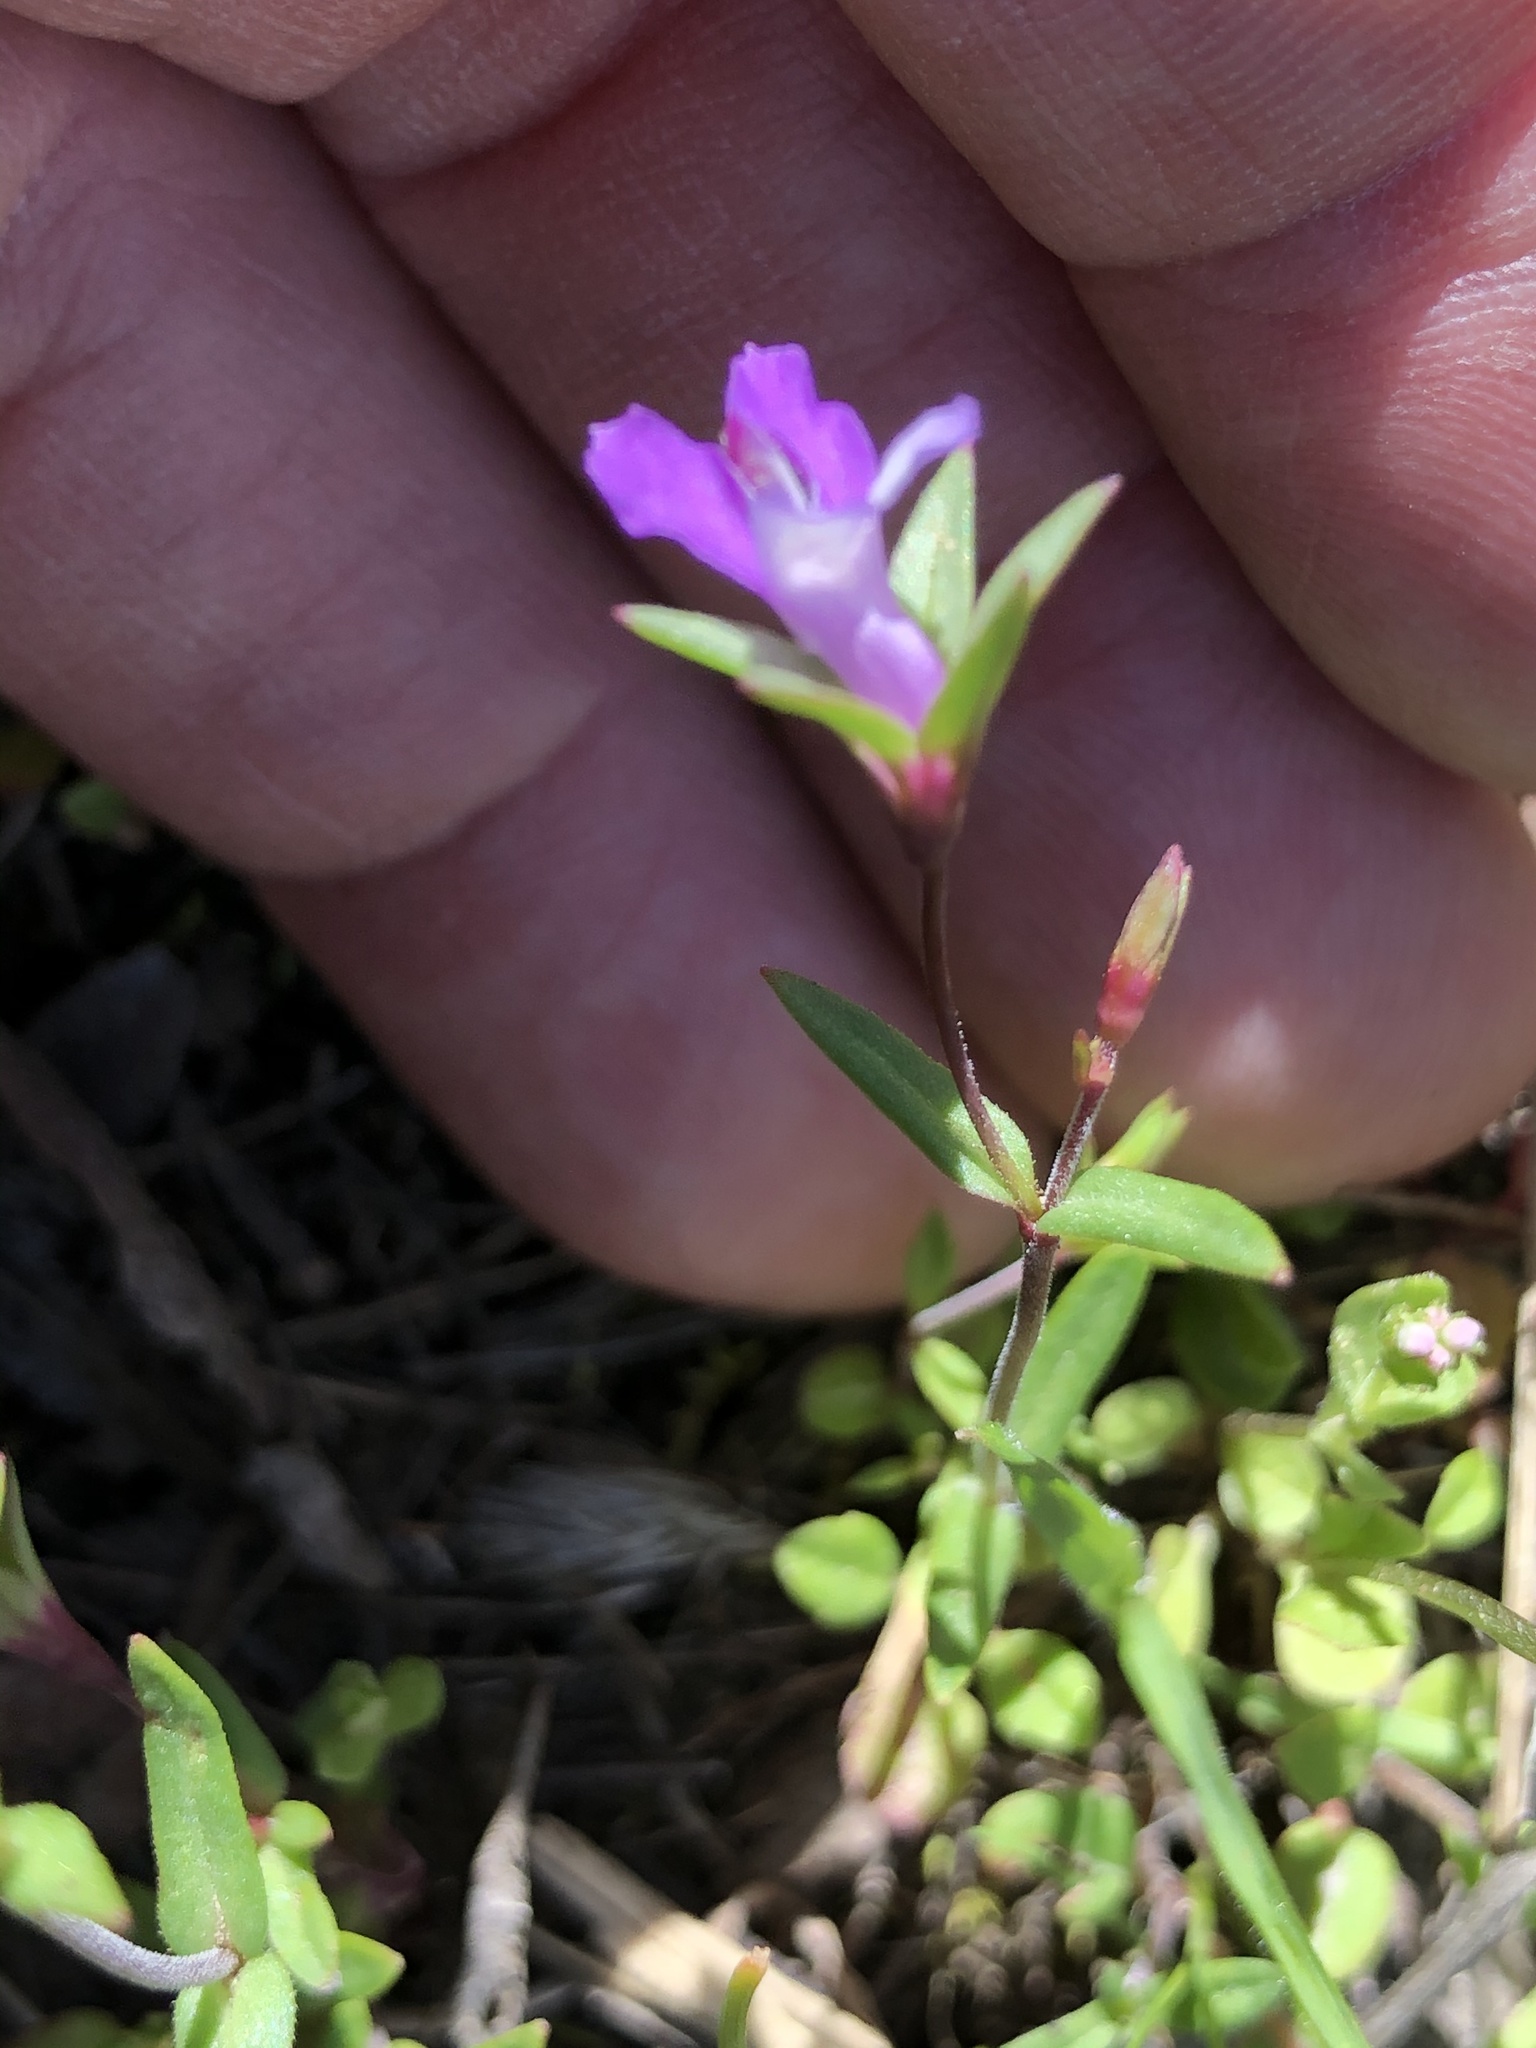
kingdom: Plantae
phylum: Tracheophyta
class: Magnoliopsida
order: Lamiales
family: Plantaginaceae
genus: Collinsia
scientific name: Collinsia sparsiflora
